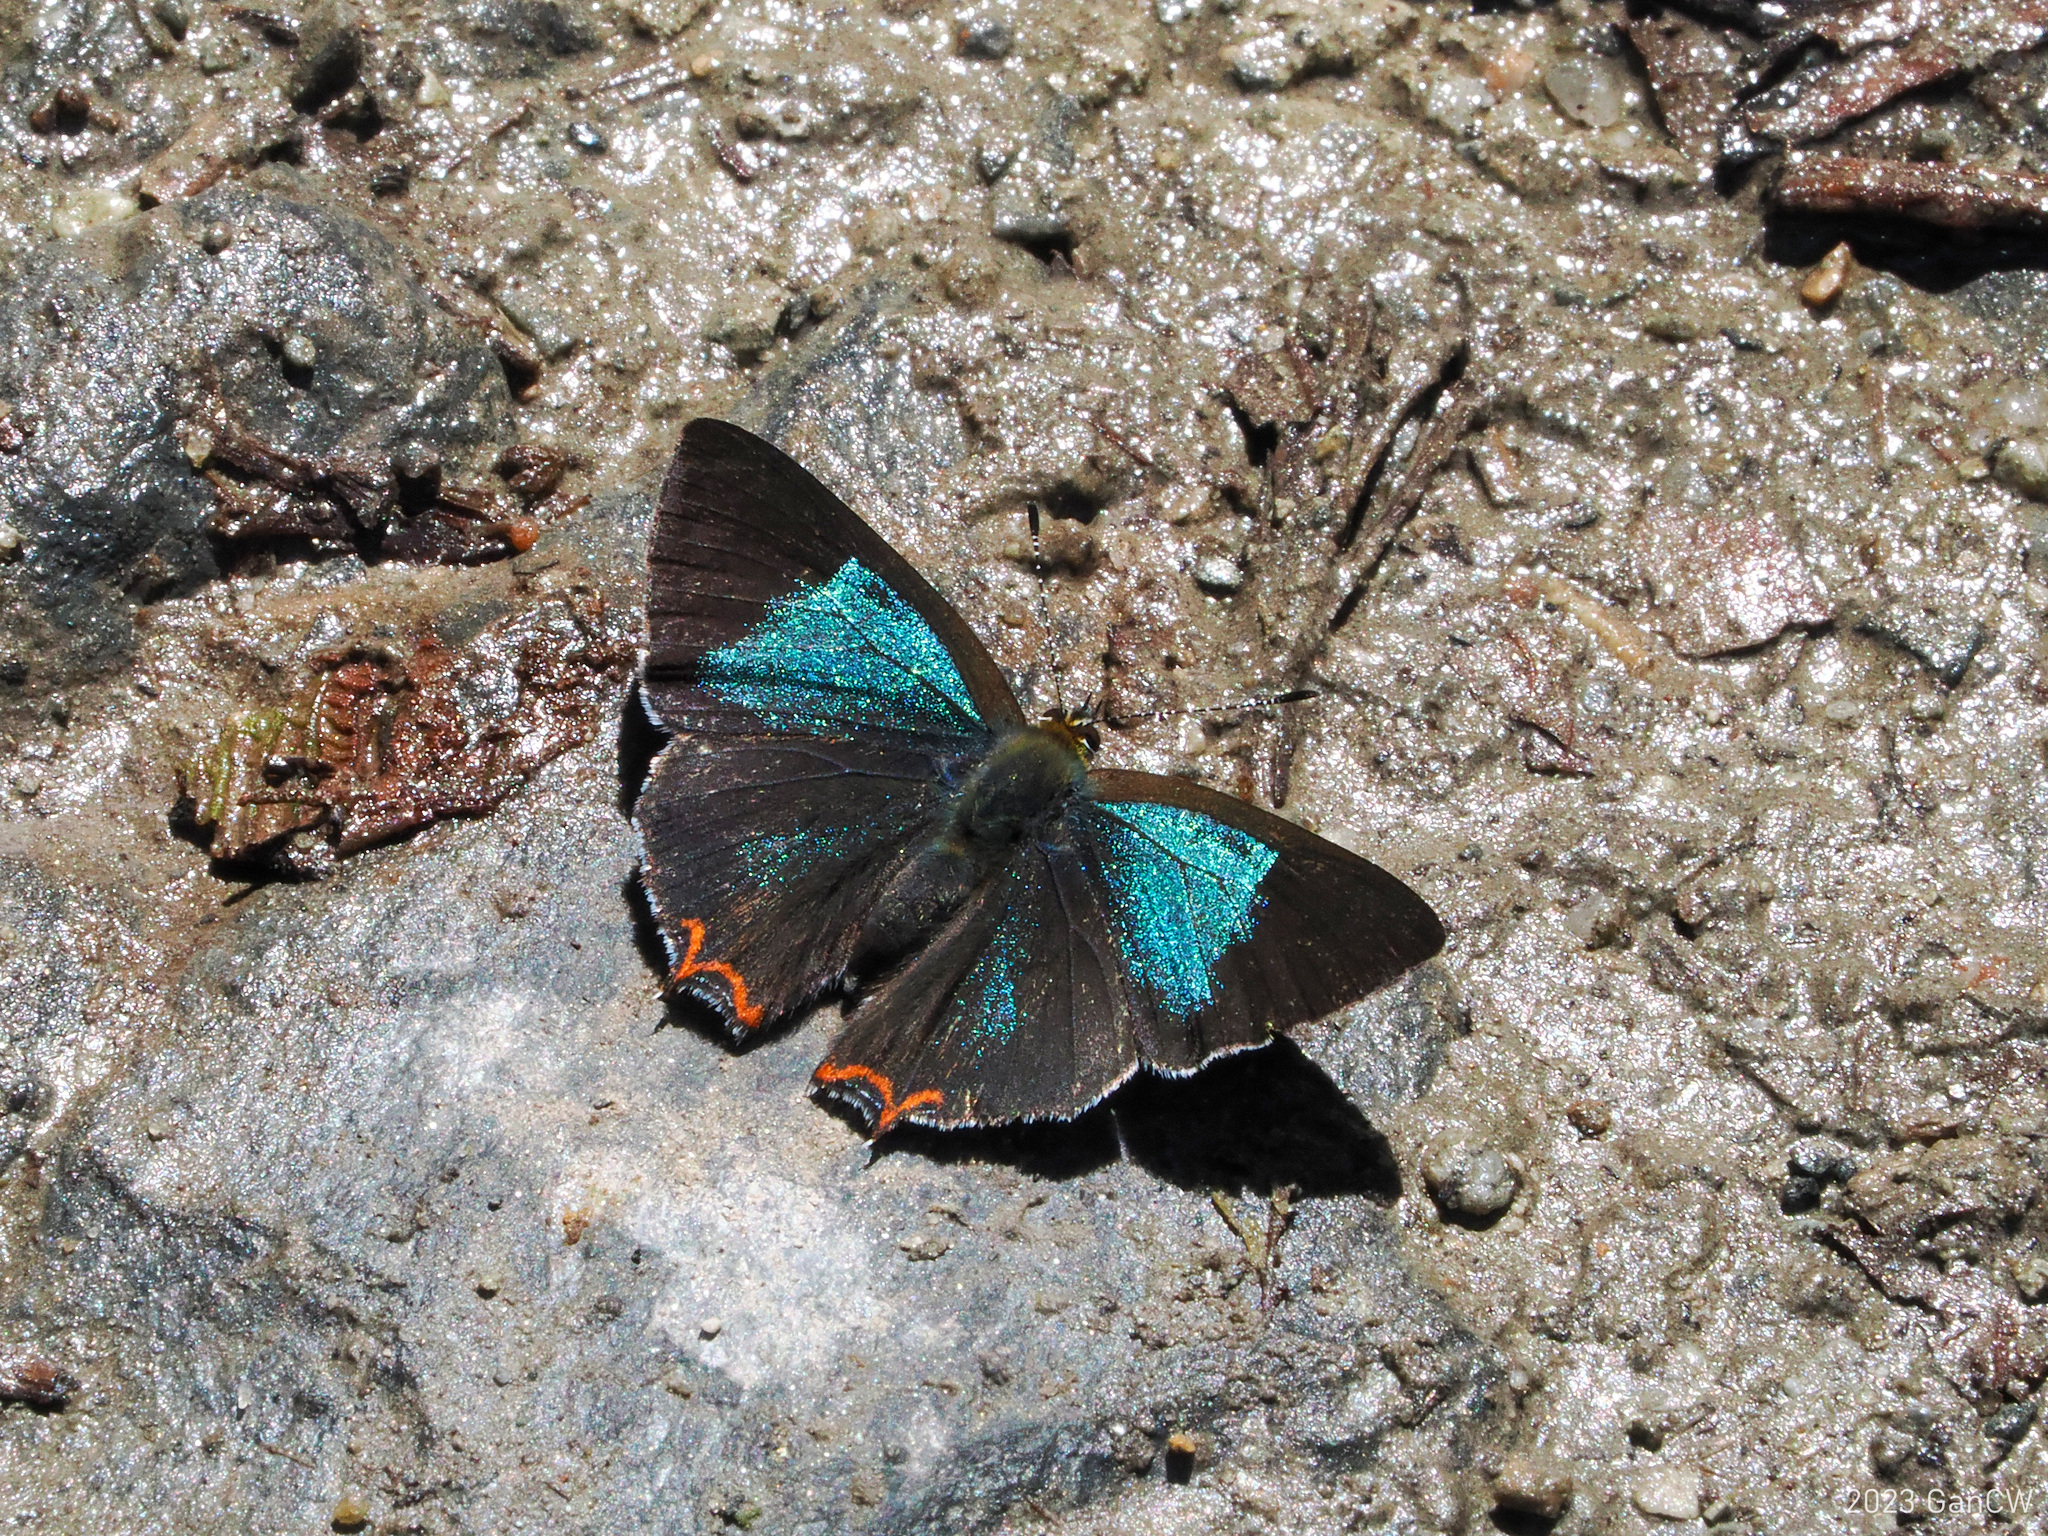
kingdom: Animalia
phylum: Arthropoda
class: Insecta
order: Lepidoptera
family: Lycaenidae
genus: Heliophorus
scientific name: Heliophorus tamu
